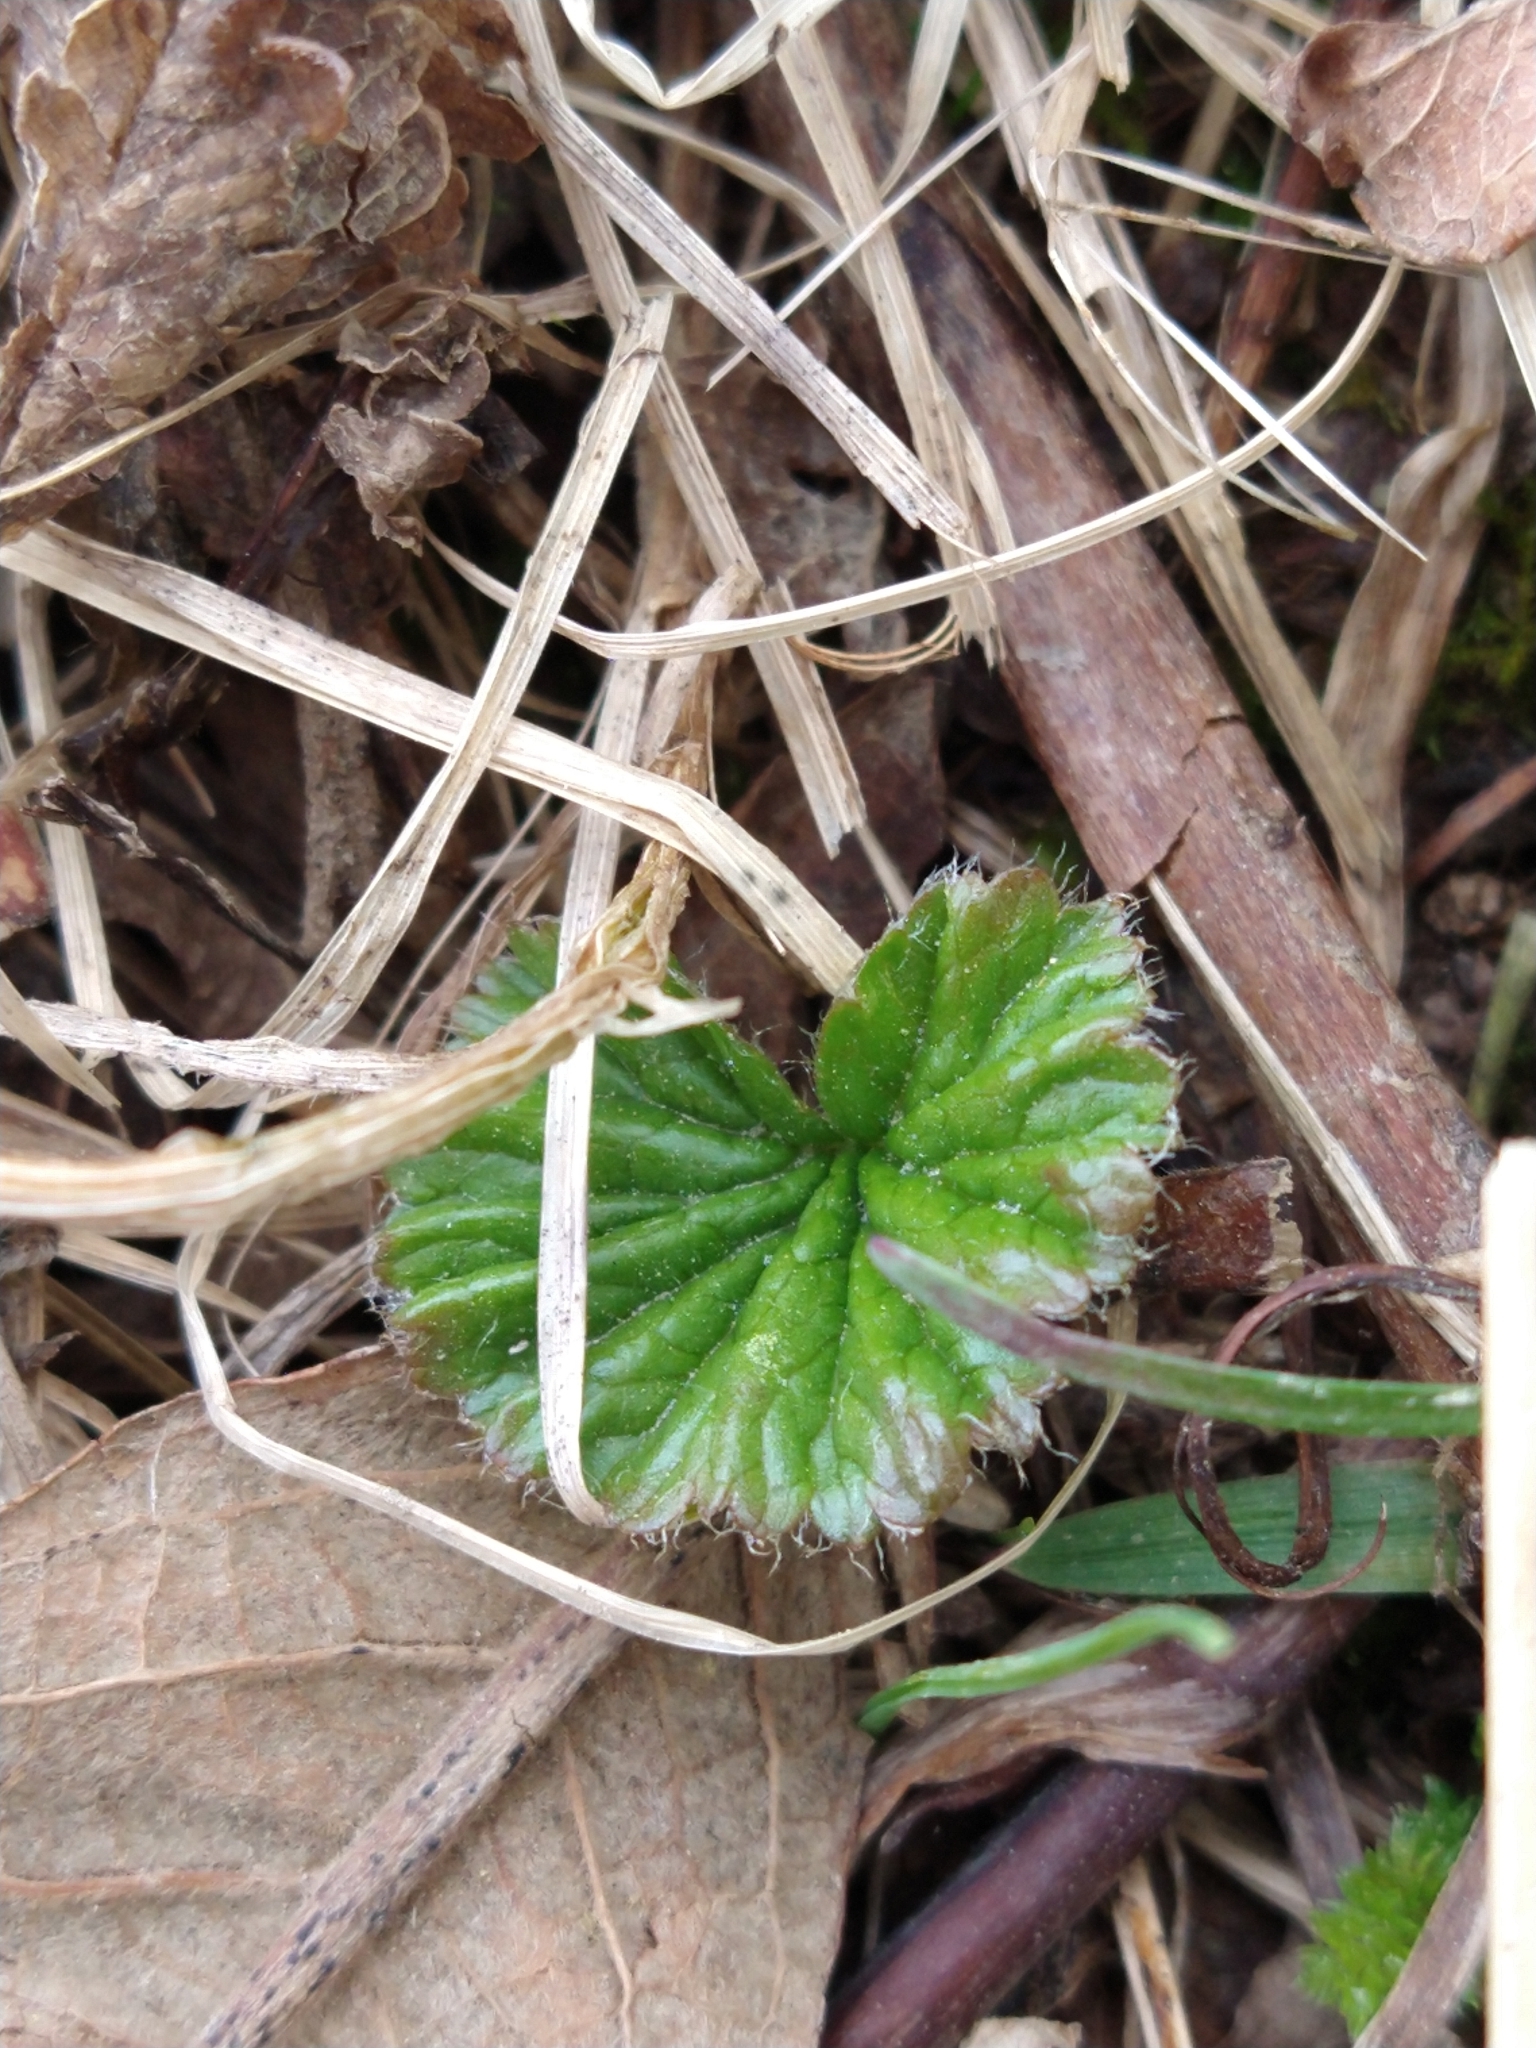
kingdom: Plantae
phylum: Tracheophyta
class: Magnoliopsida
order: Gunnerales
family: Gunneraceae
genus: Gunnera
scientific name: Gunnera magellanica
